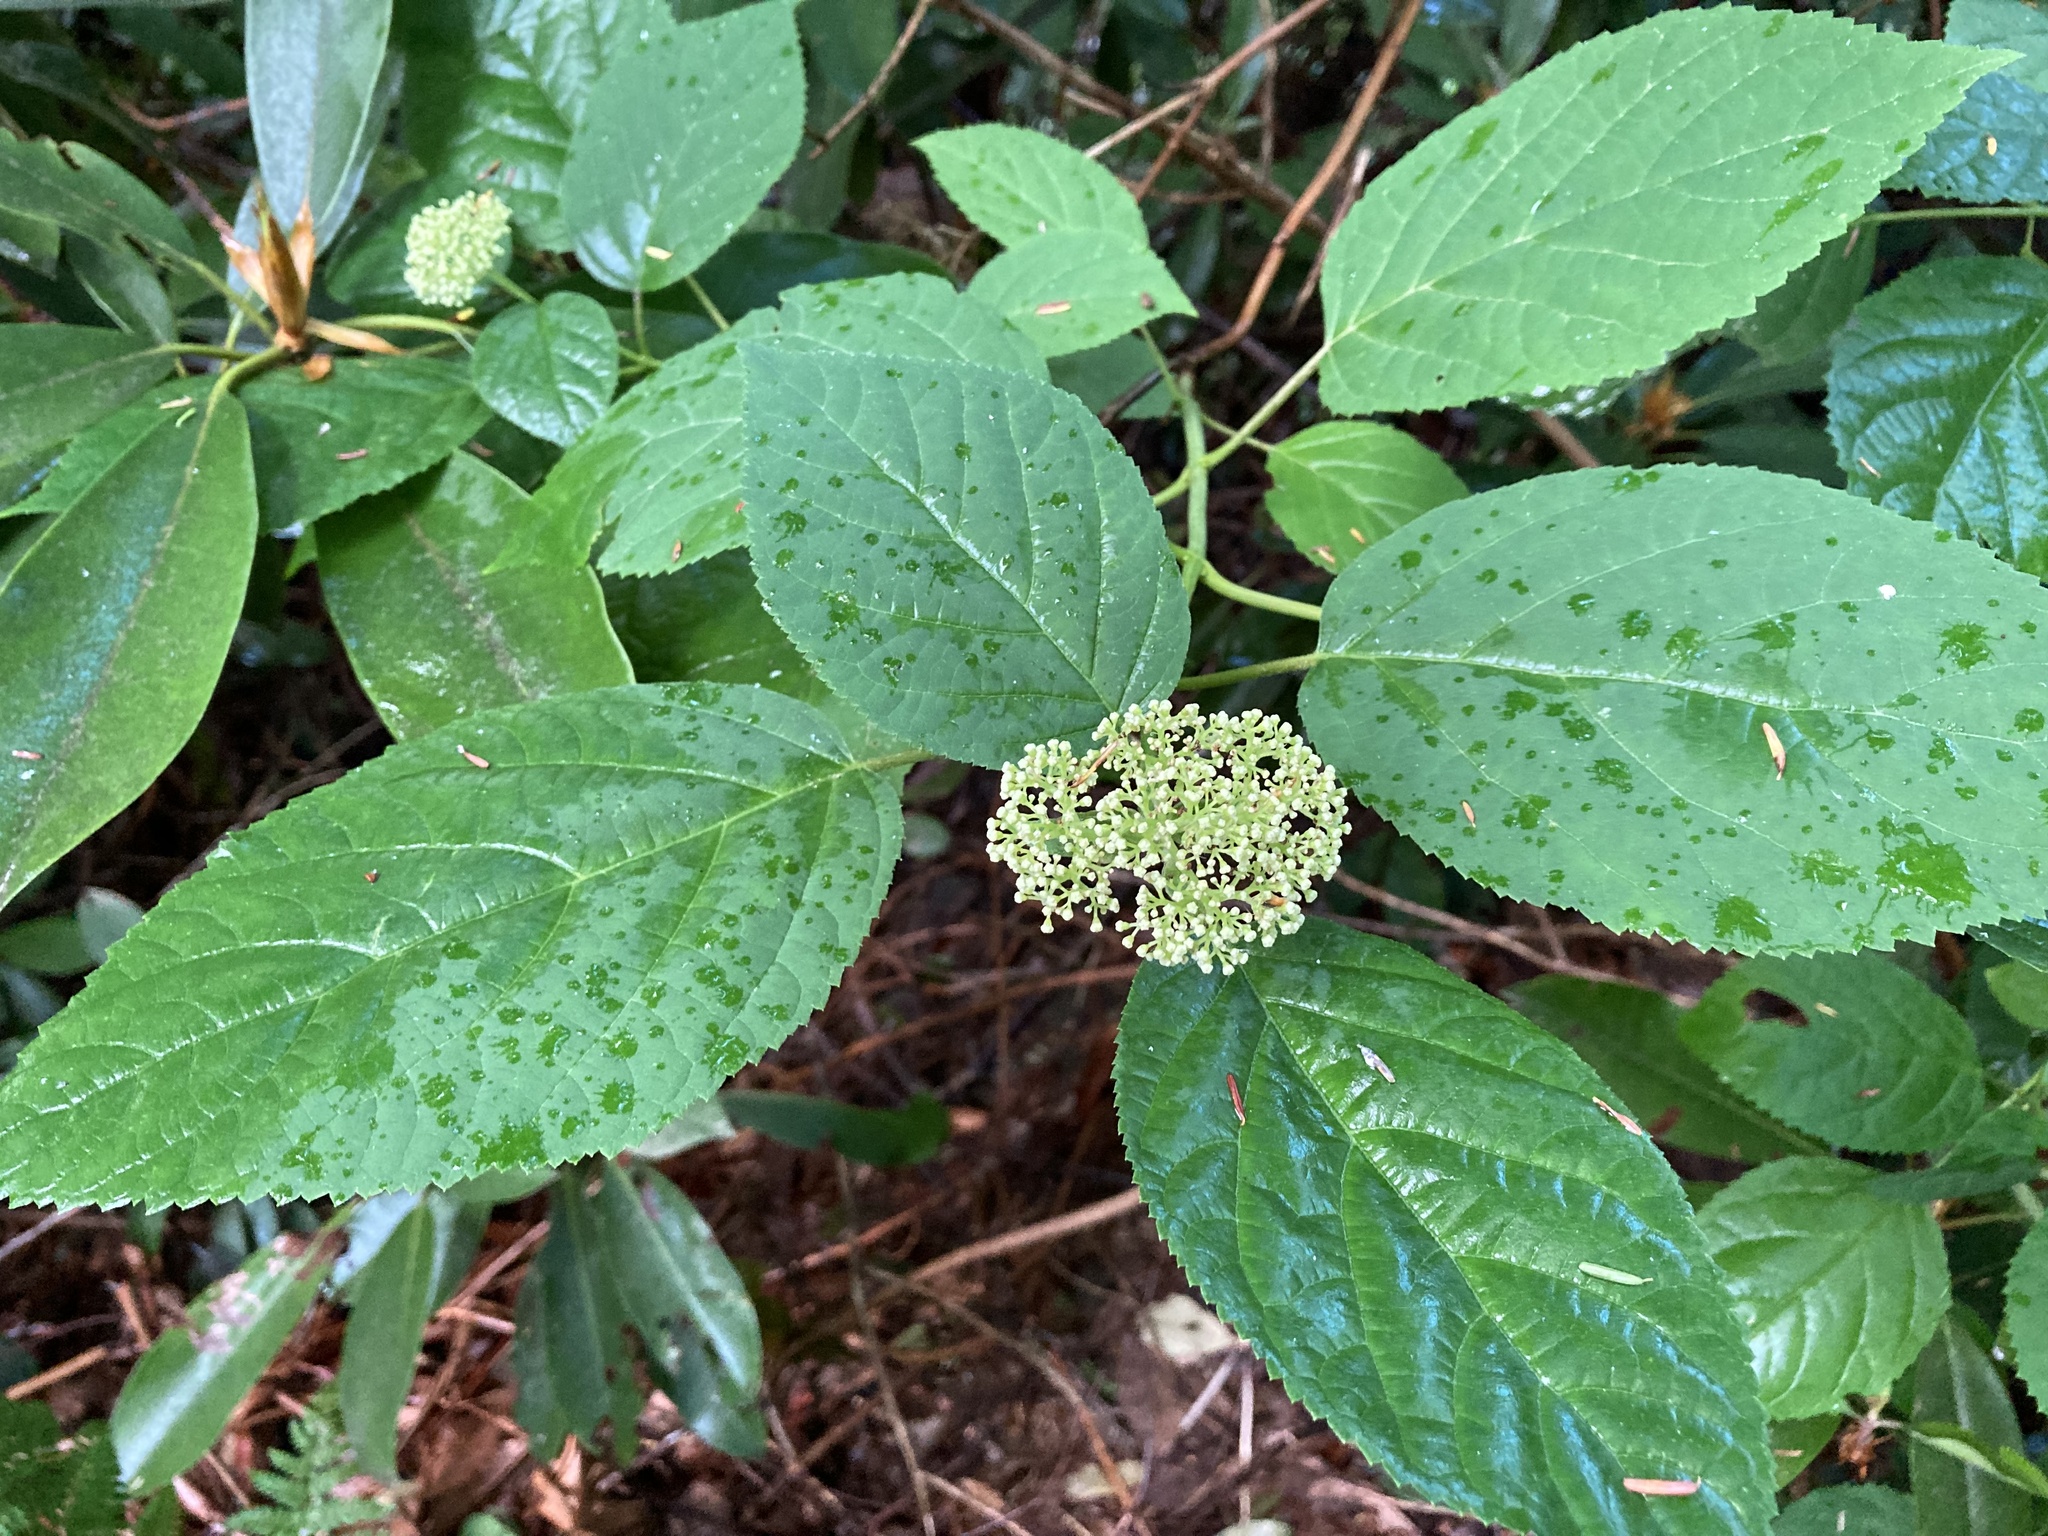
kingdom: Plantae
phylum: Tracheophyta
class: Magnoliopsida
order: Cornales
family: Hydrangeaceae
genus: Hydrangea
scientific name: Hydrangea arborescens
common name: Sevenbark
